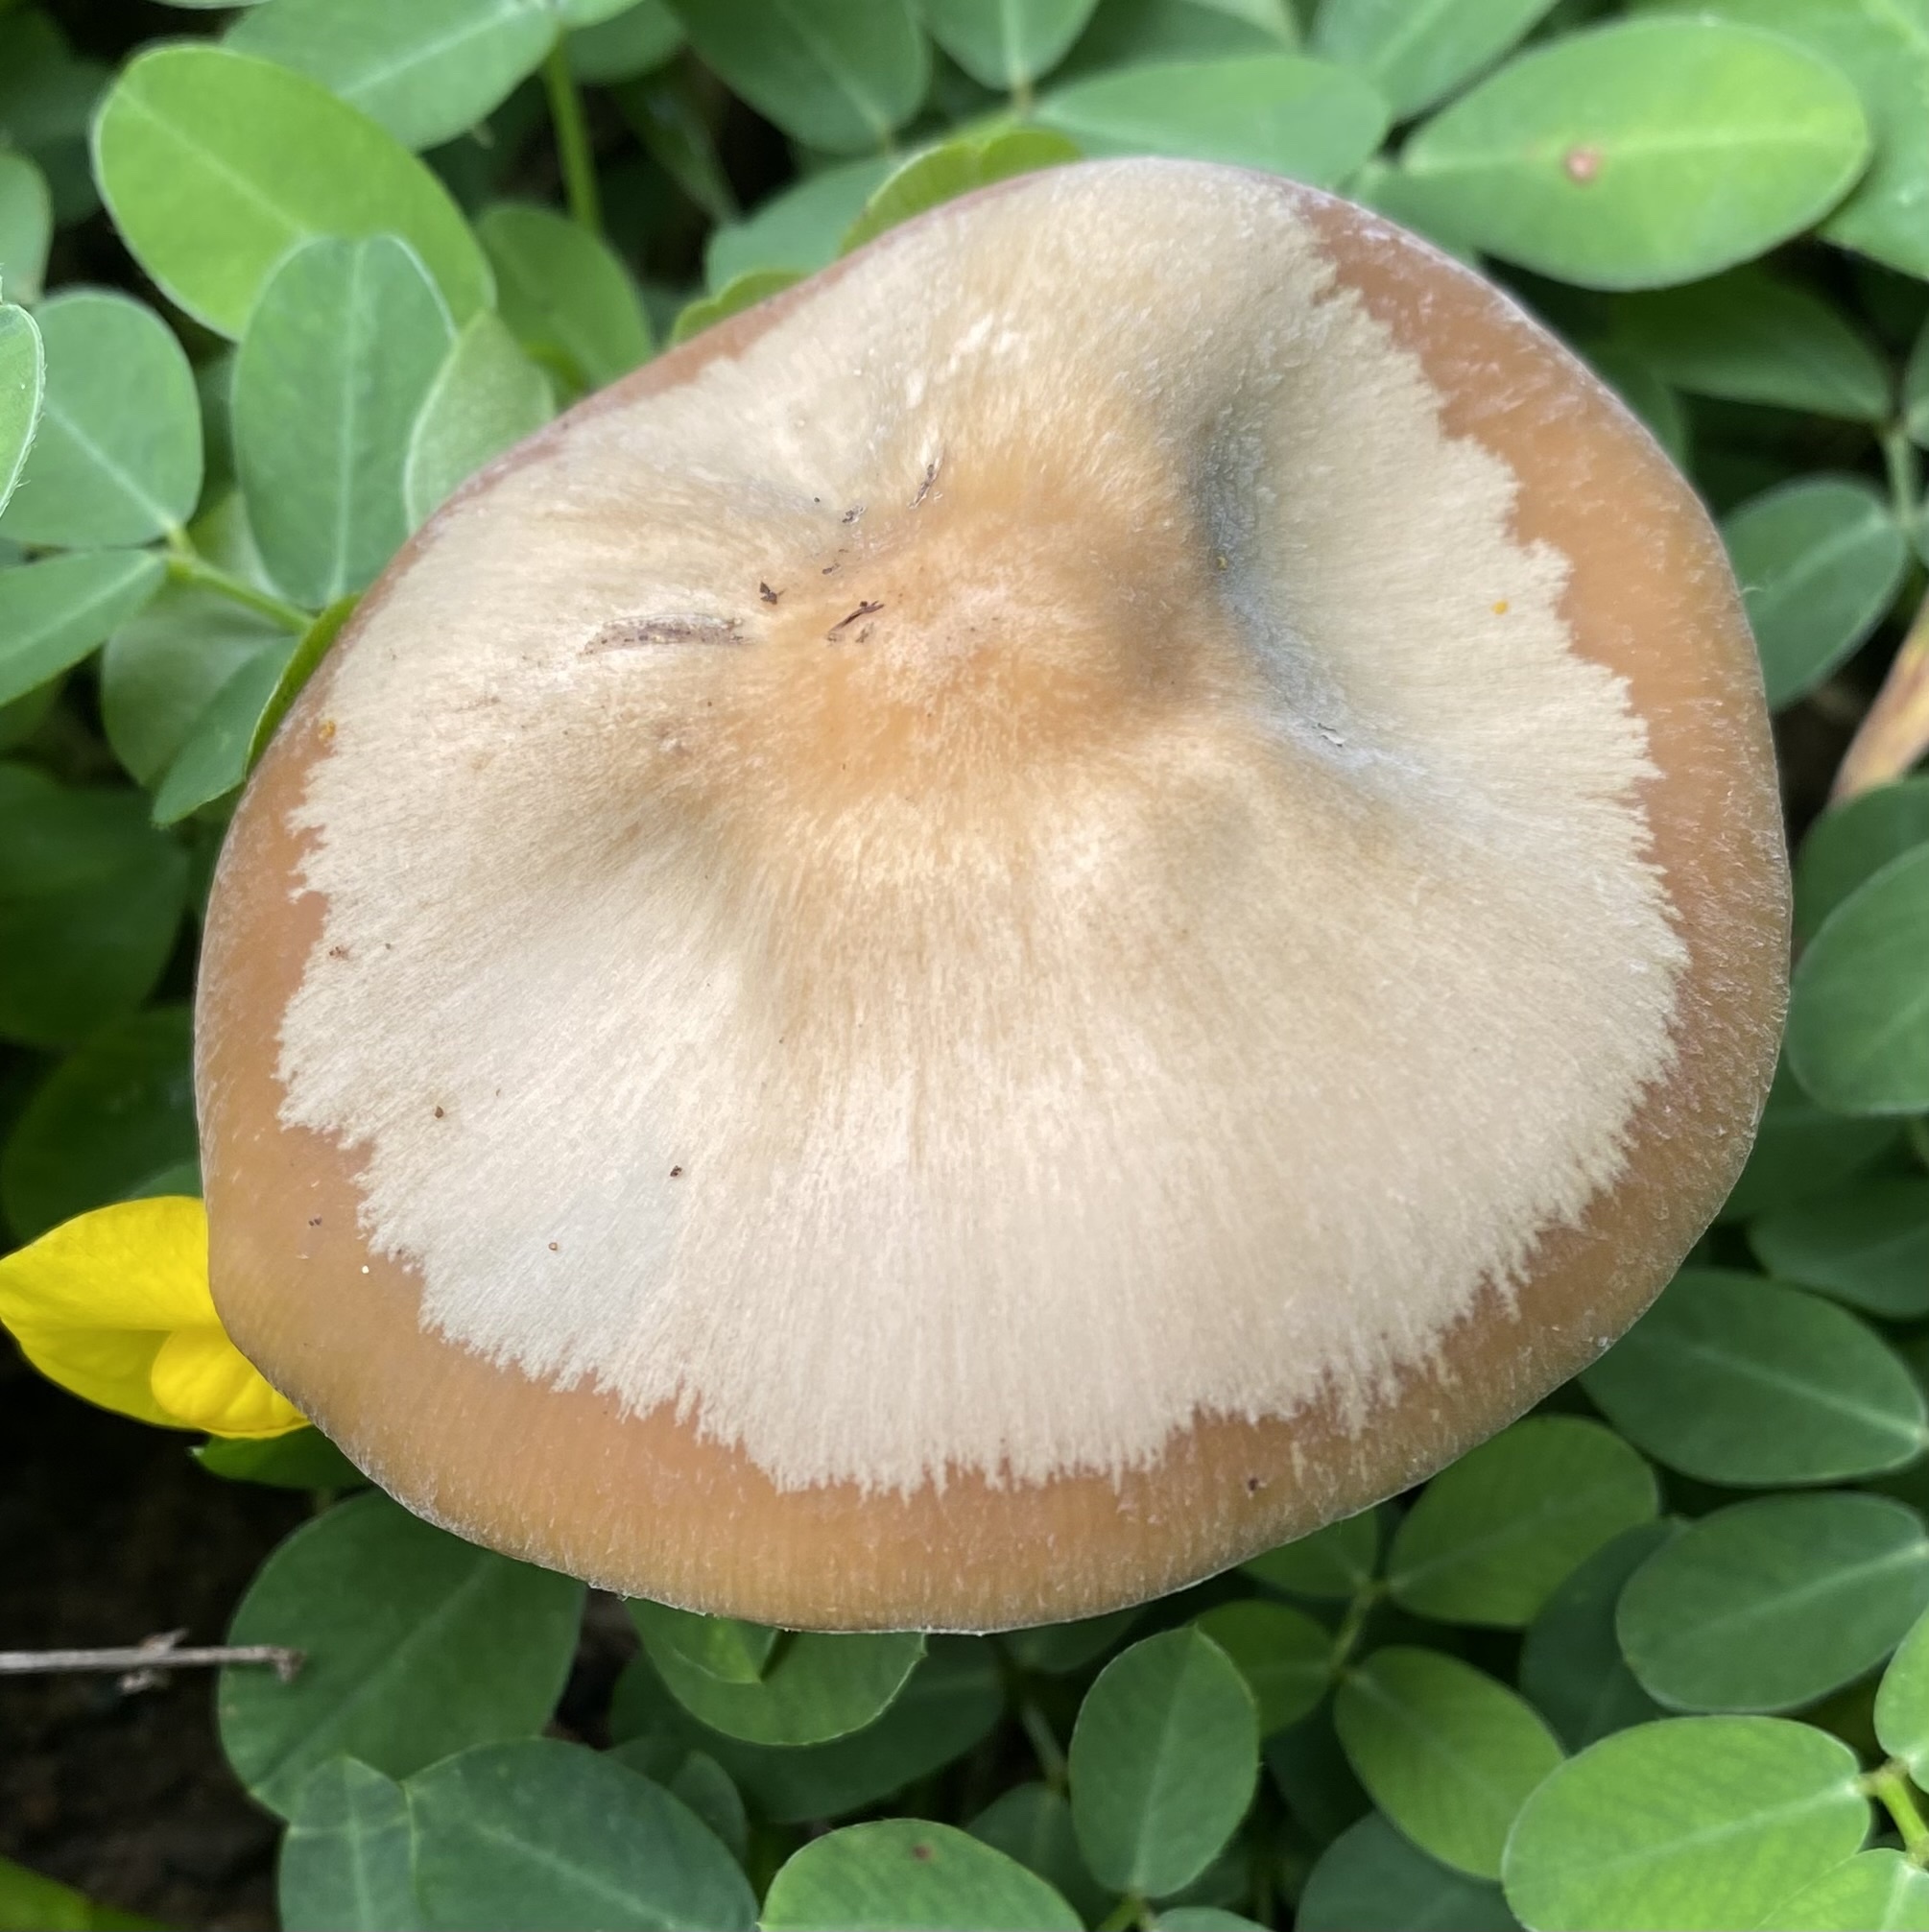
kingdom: Fungi
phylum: Basidiomycota
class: Agaricomycetes
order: Agaricales
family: Hymenogastraceae
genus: Psilocybe
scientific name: Psilocybe caerulescens
